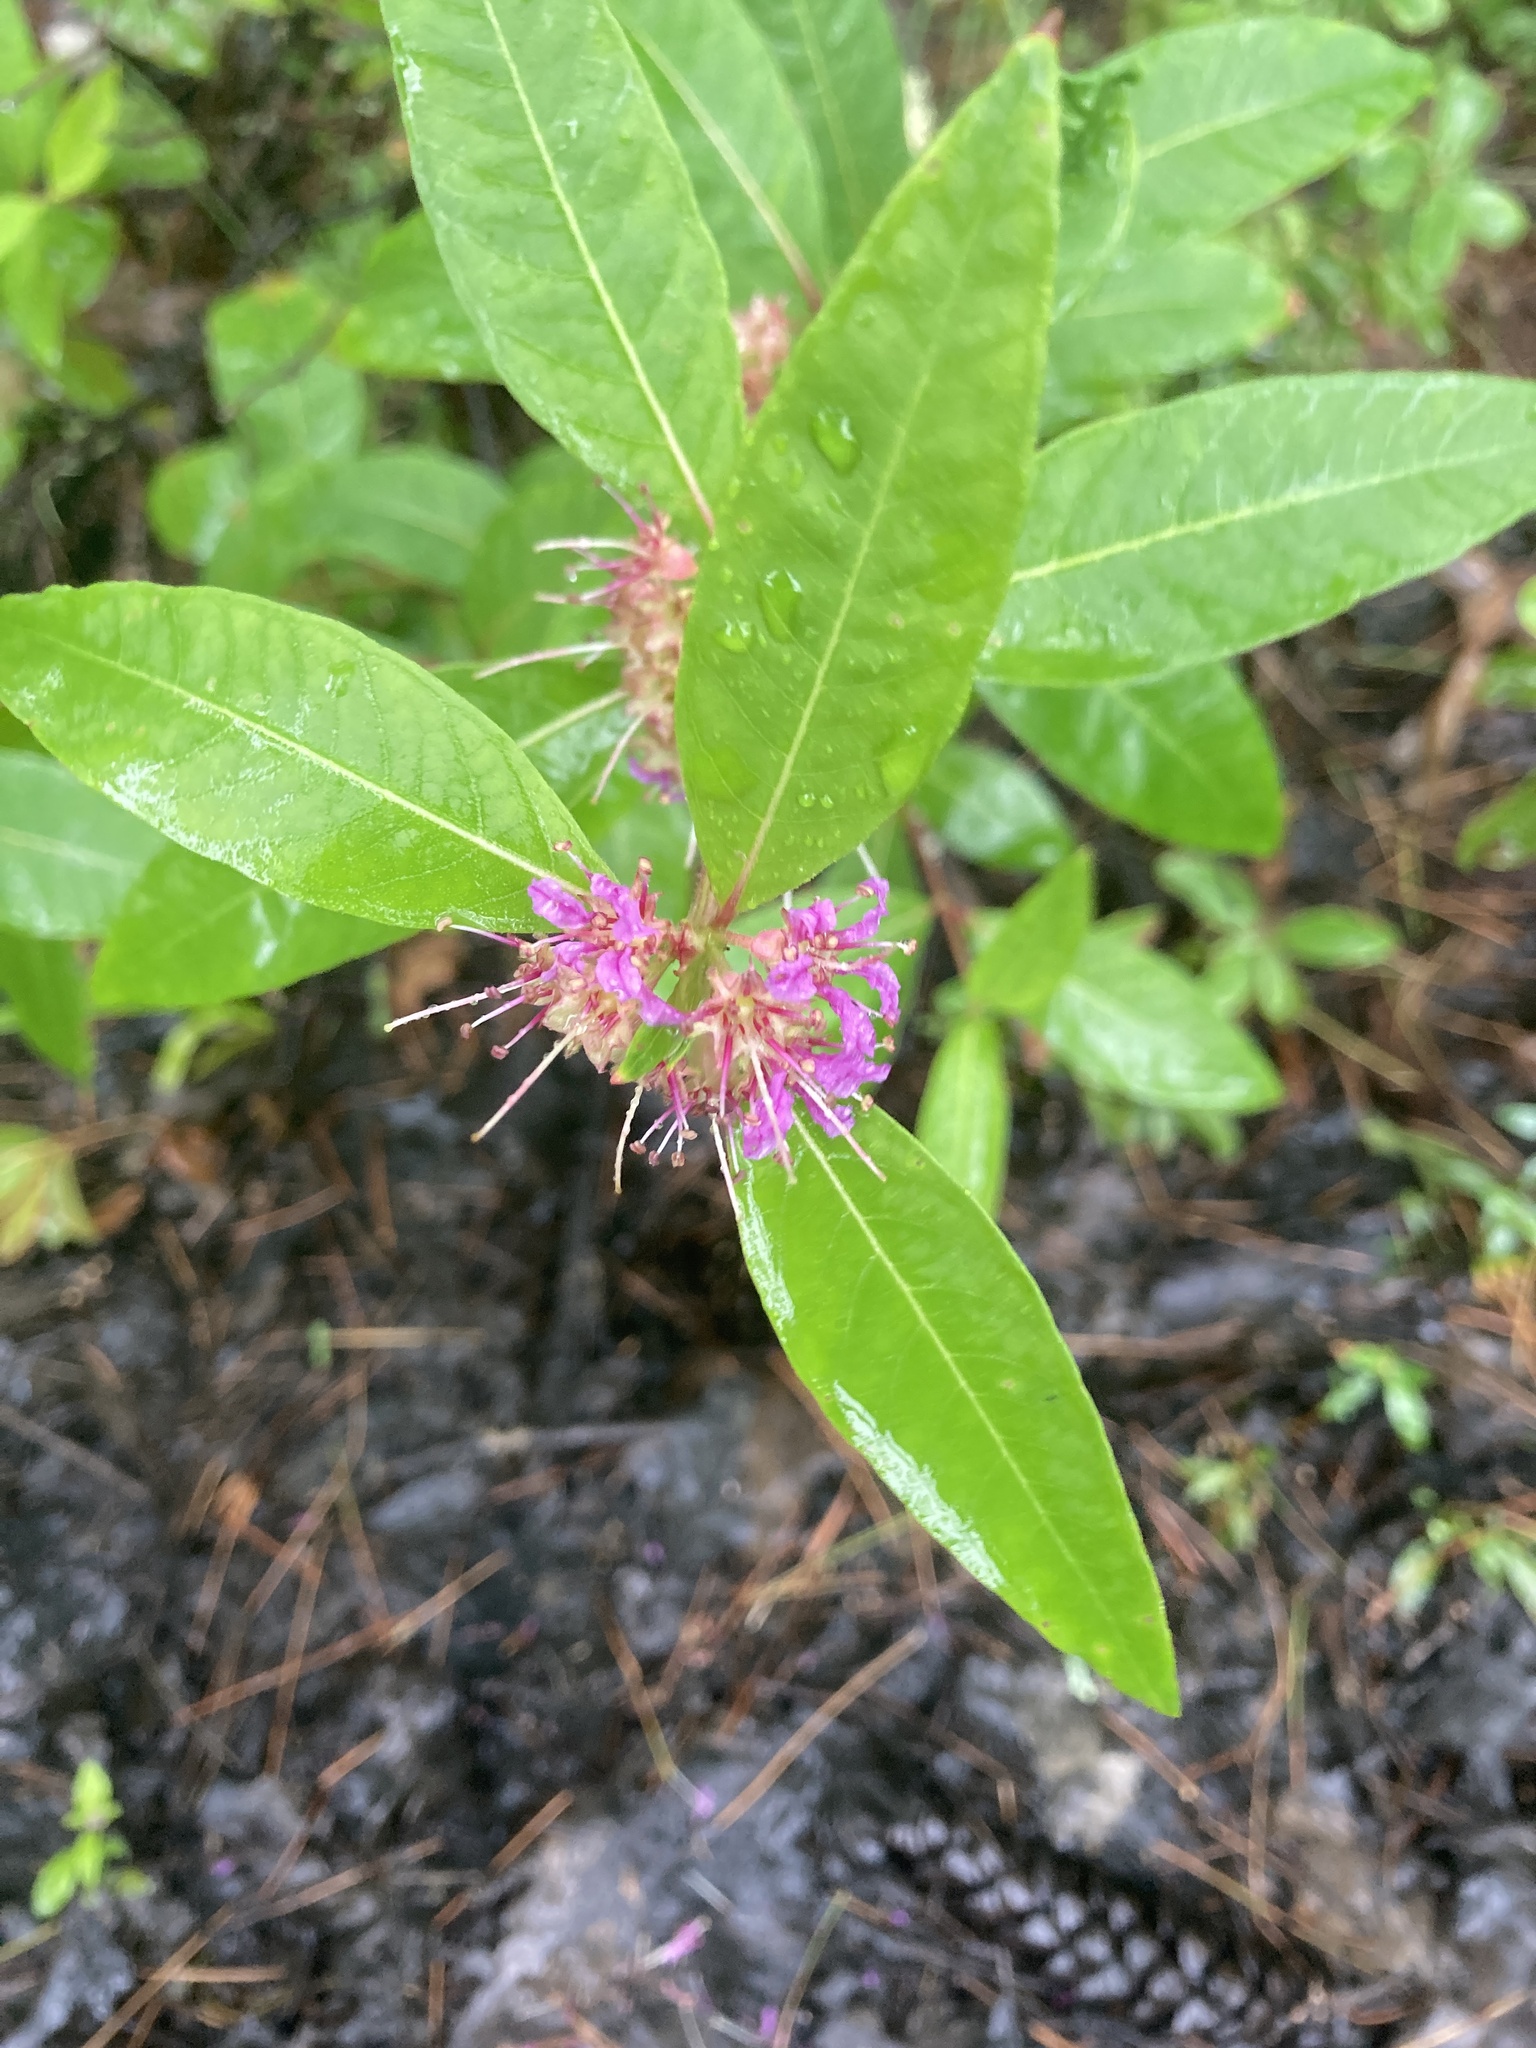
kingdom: Plantae
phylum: Tracheophyta
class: Magnoliopsida
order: Myrtales
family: Lythraceae
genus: Decodon
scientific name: Decodon verticillatus
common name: Hairy swamp loosestrife
